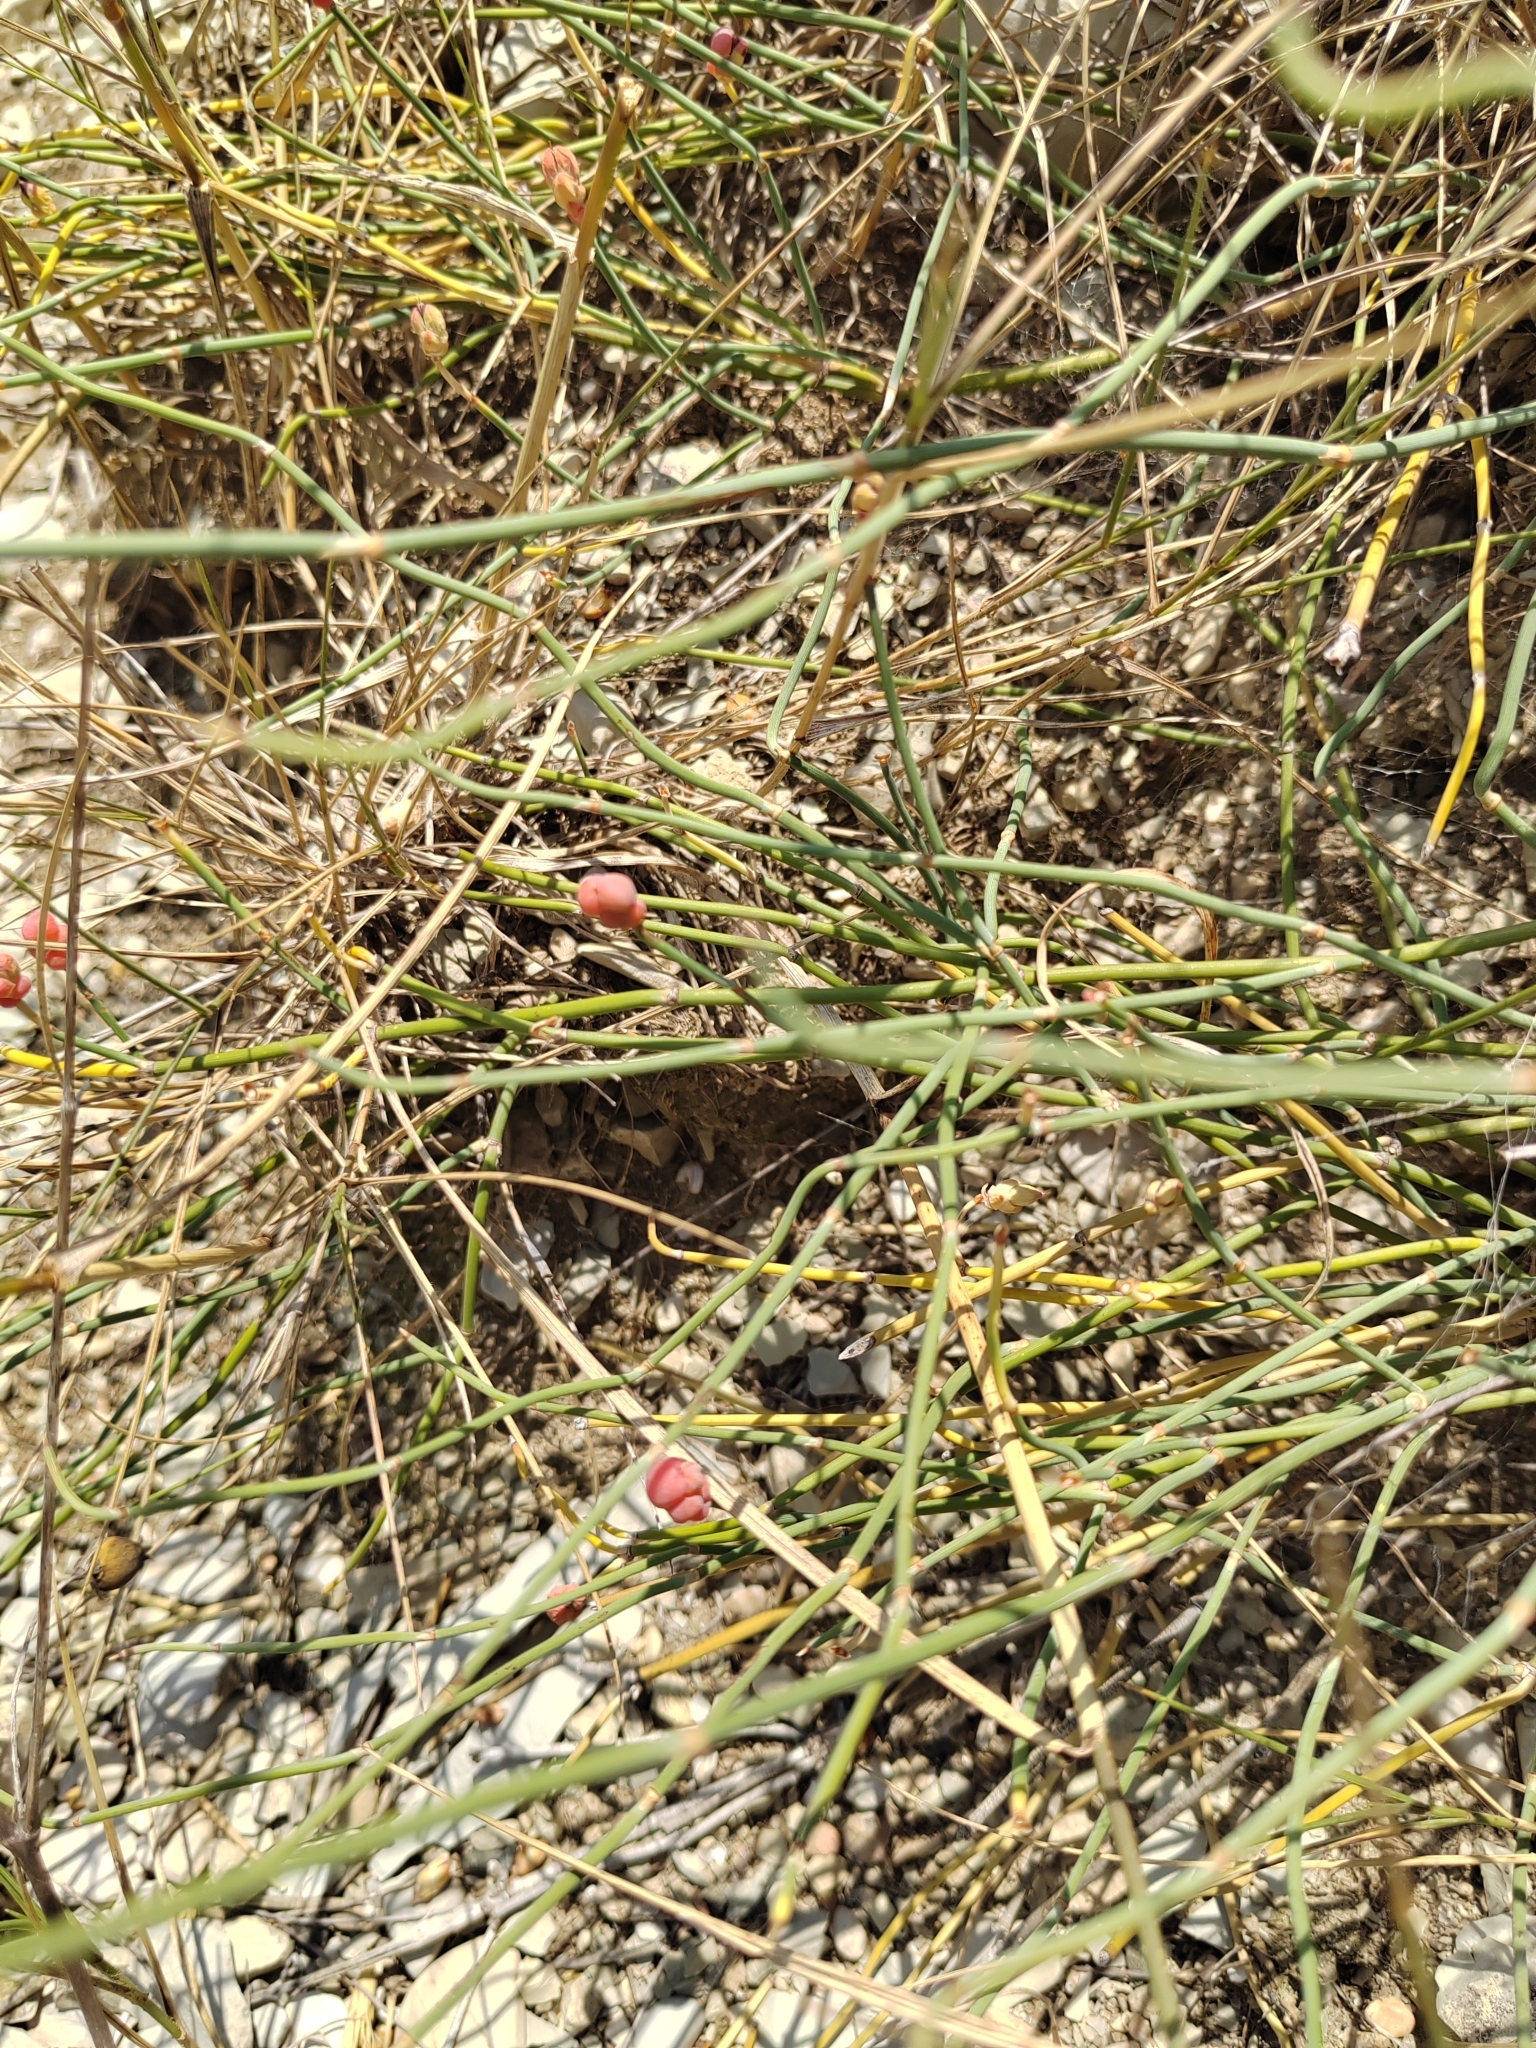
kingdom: Plantae
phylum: Tracheophyta
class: Gnetopsida
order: Ephedrales
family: Ephedraceae
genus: Ephedra
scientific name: Ephedra distachya
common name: Sea grape
